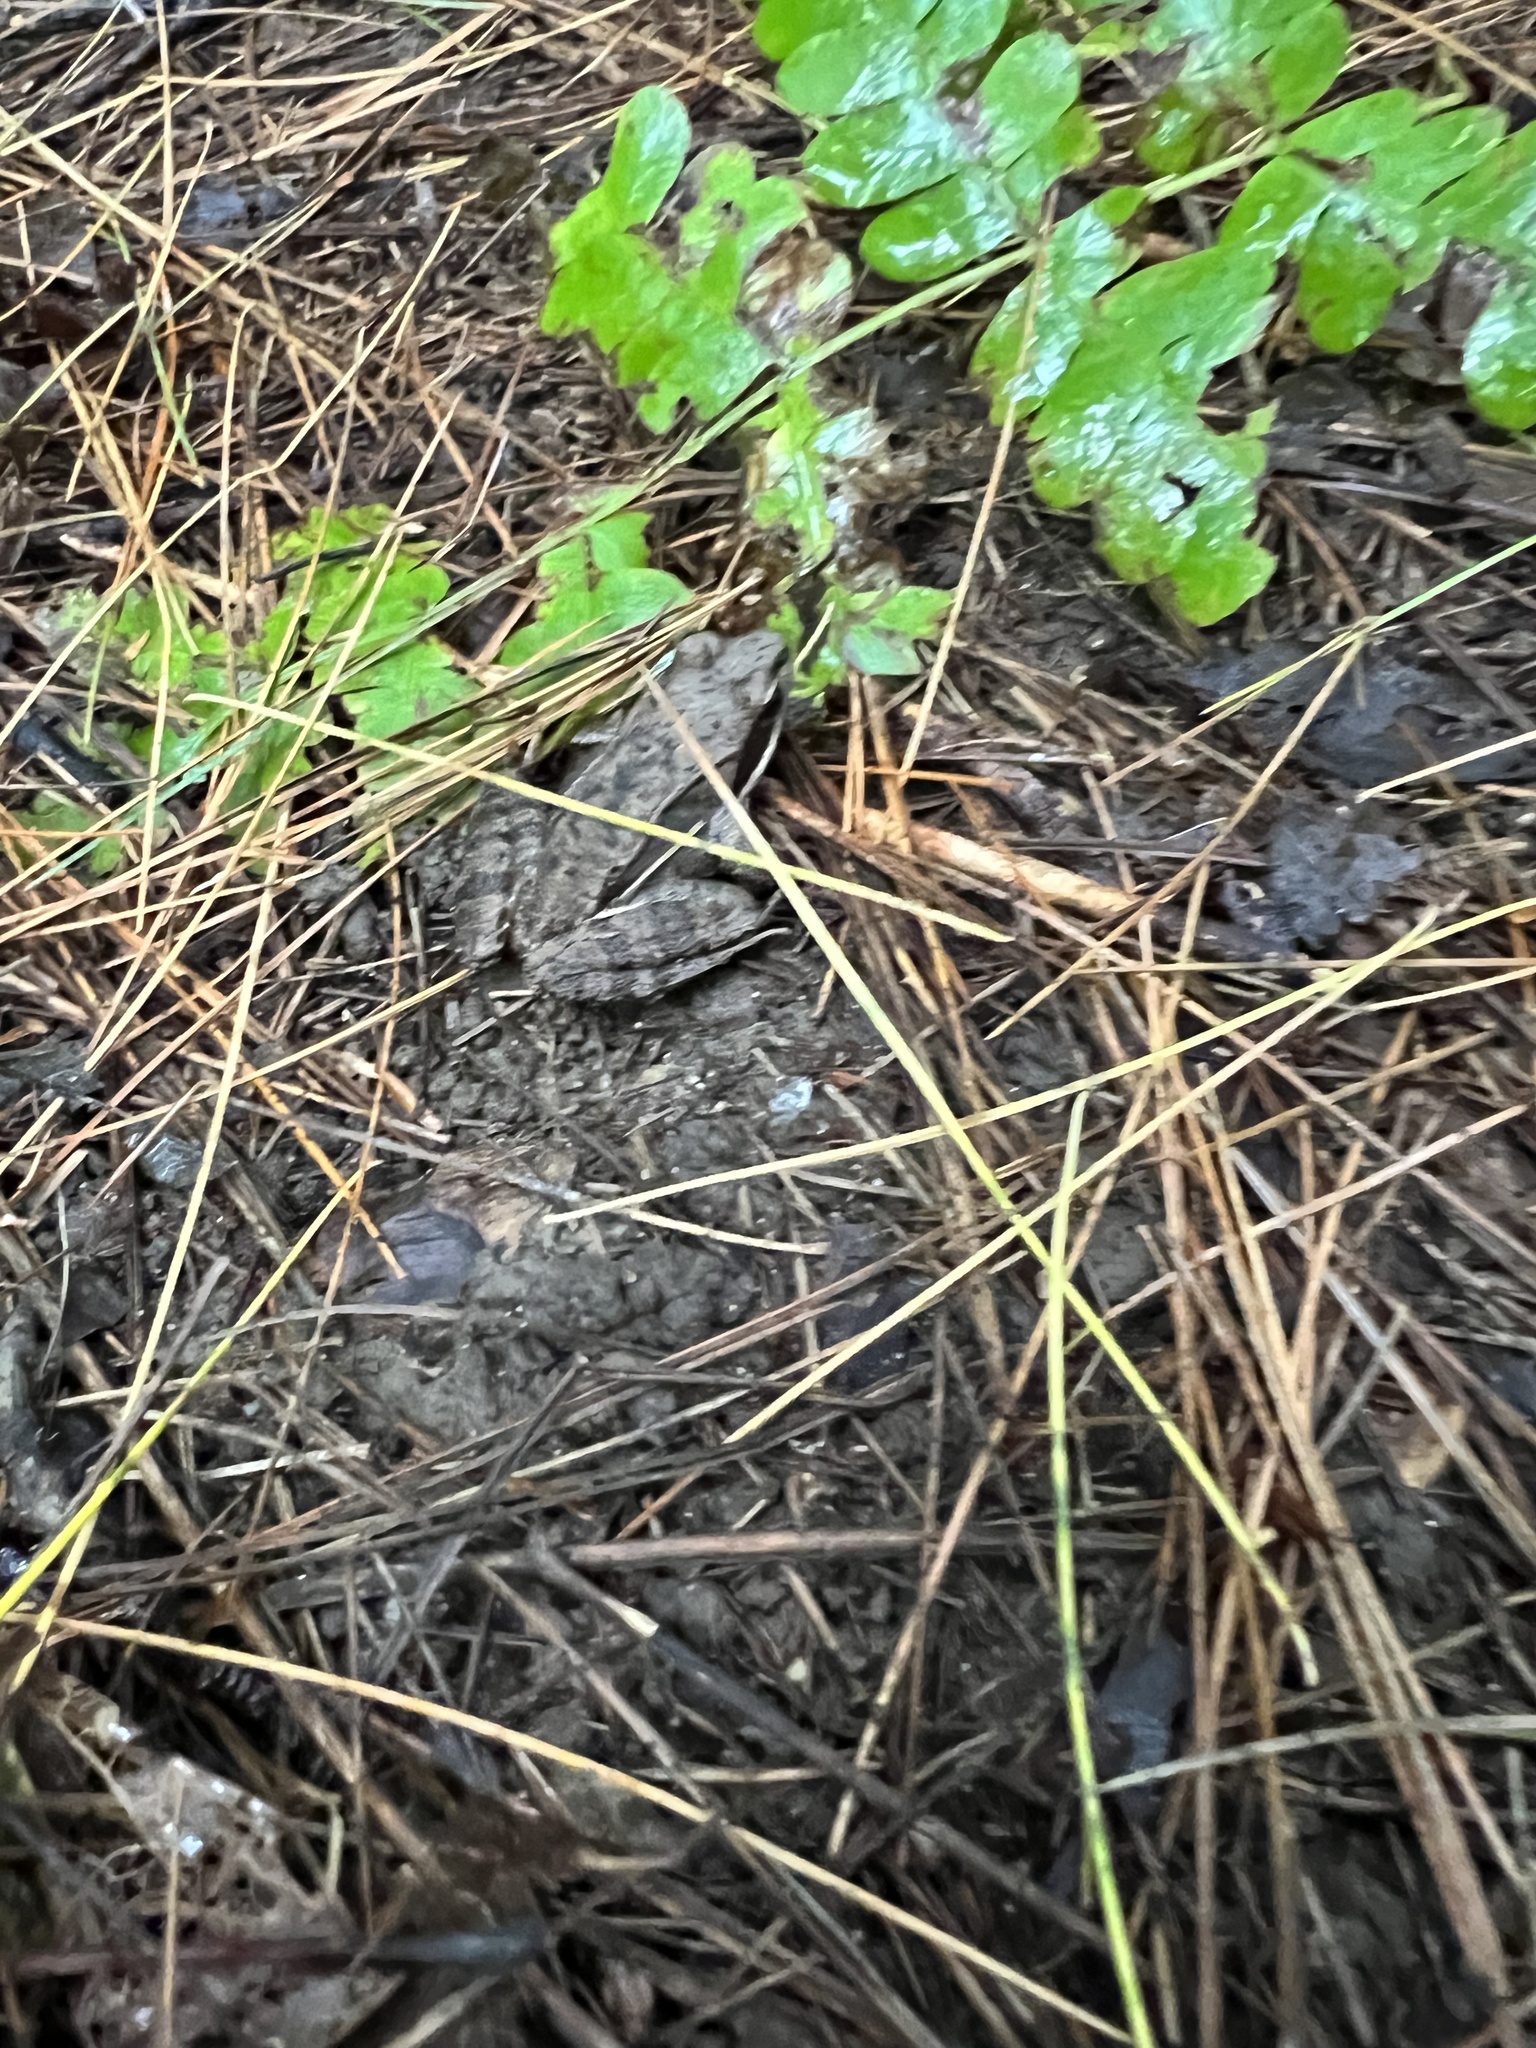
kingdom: Animalia
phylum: Chordata
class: Amphibia
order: Anura
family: Ranidae
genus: Lithobates
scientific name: Lithobates sylvaticus
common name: Wood frog
